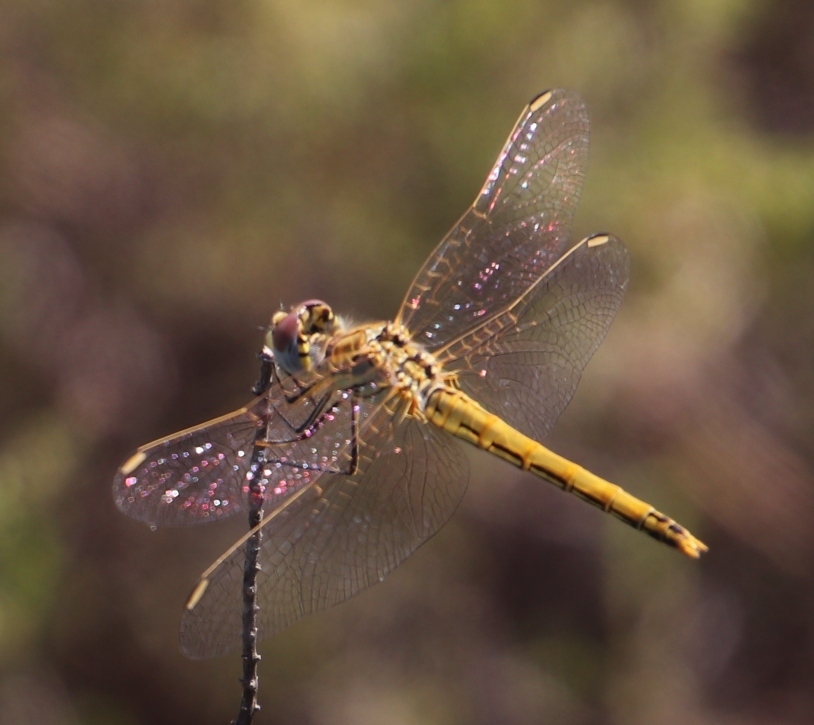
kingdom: Animalia
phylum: Arthropoda
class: Insecta
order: Odonata
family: Libellulidae
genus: Sympetrum
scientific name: Sympetrum fonscolombii
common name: Red-veined darter
